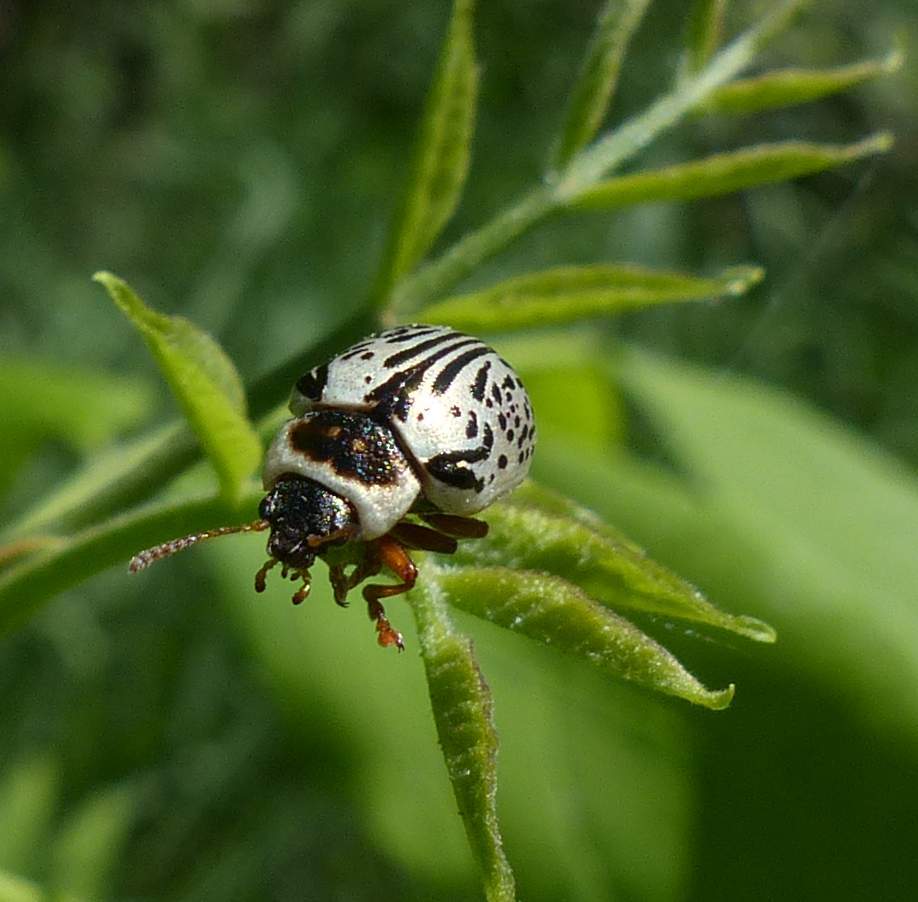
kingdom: Animalia
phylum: Arthropoda
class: Insecta
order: Coleoptera
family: Chrysomelidae
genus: Calligrapha
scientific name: Calligrapha multipunctata
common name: Common willow calligrapher beetle
